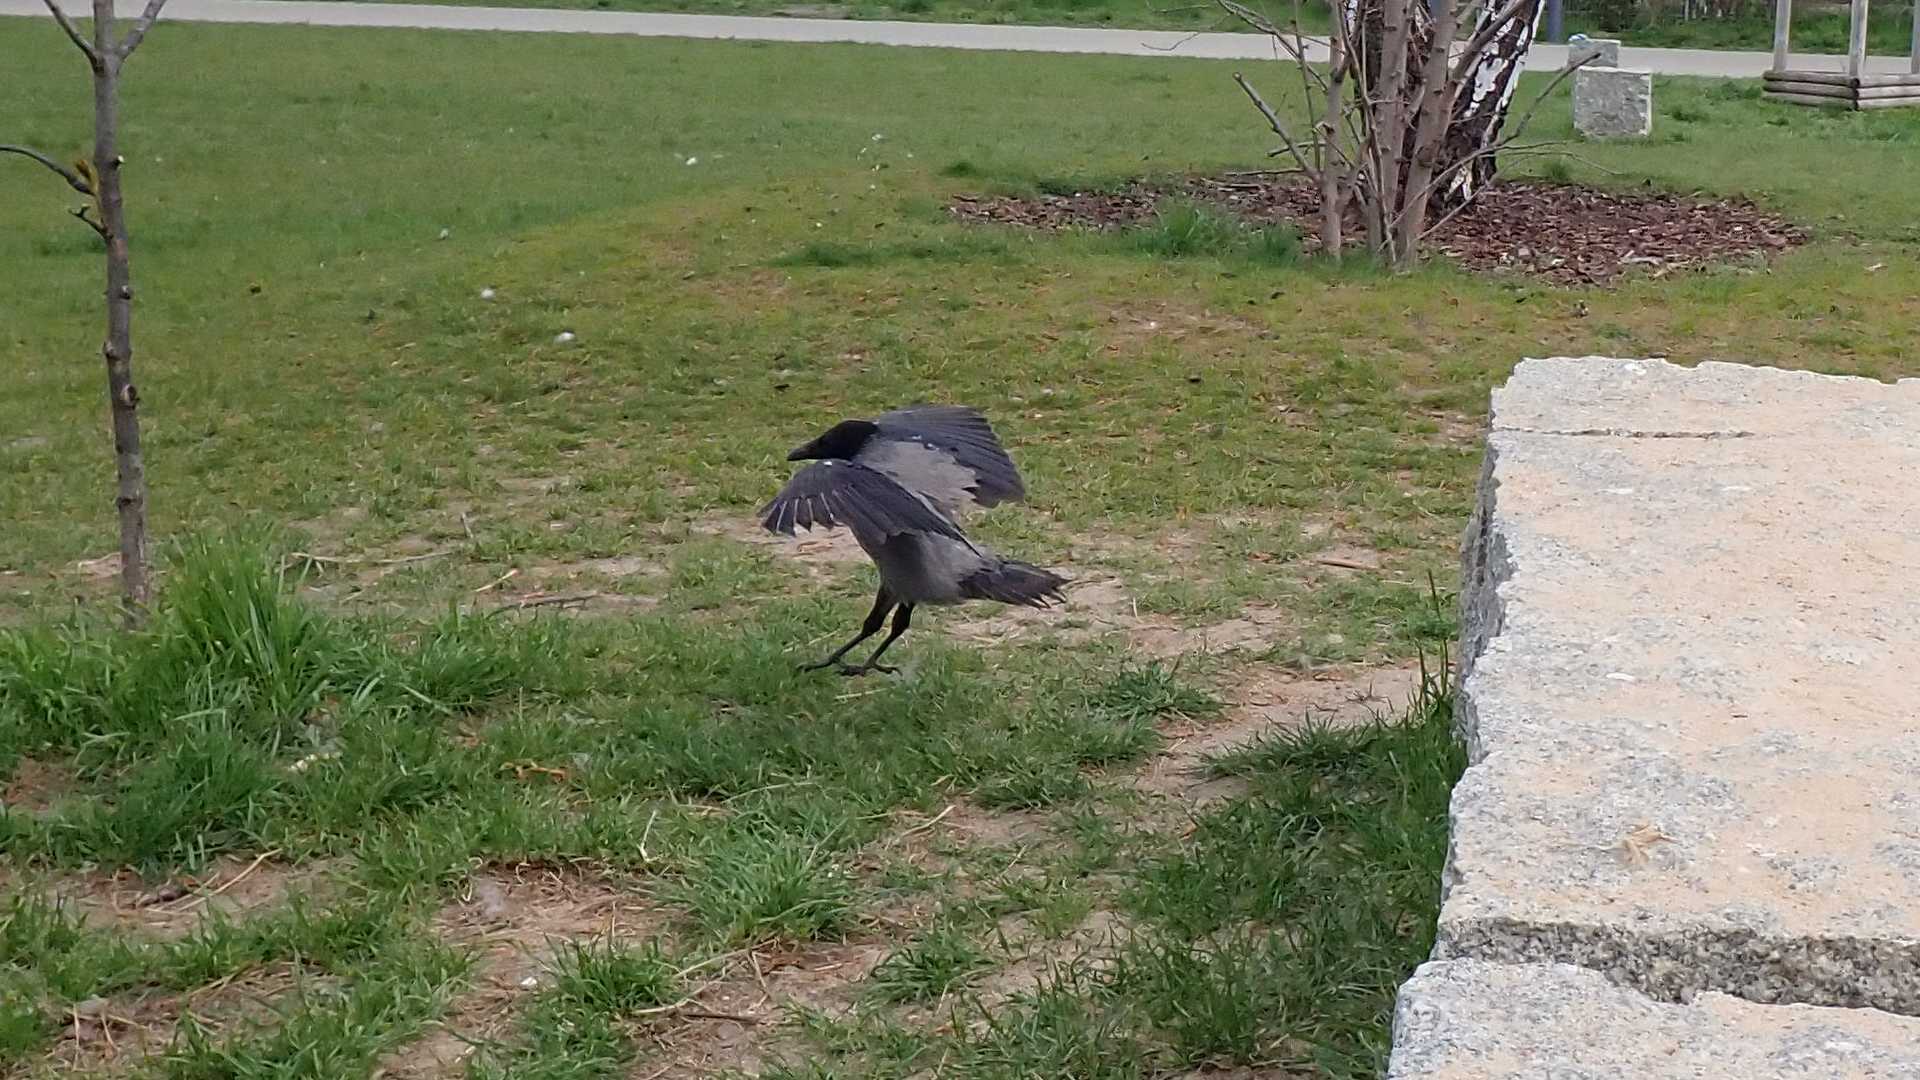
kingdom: Animalia
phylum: Chordata
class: Aves
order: Passeriformes
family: Corvidae
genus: Corvus
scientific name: Corvus cornix
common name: Hooded crow
